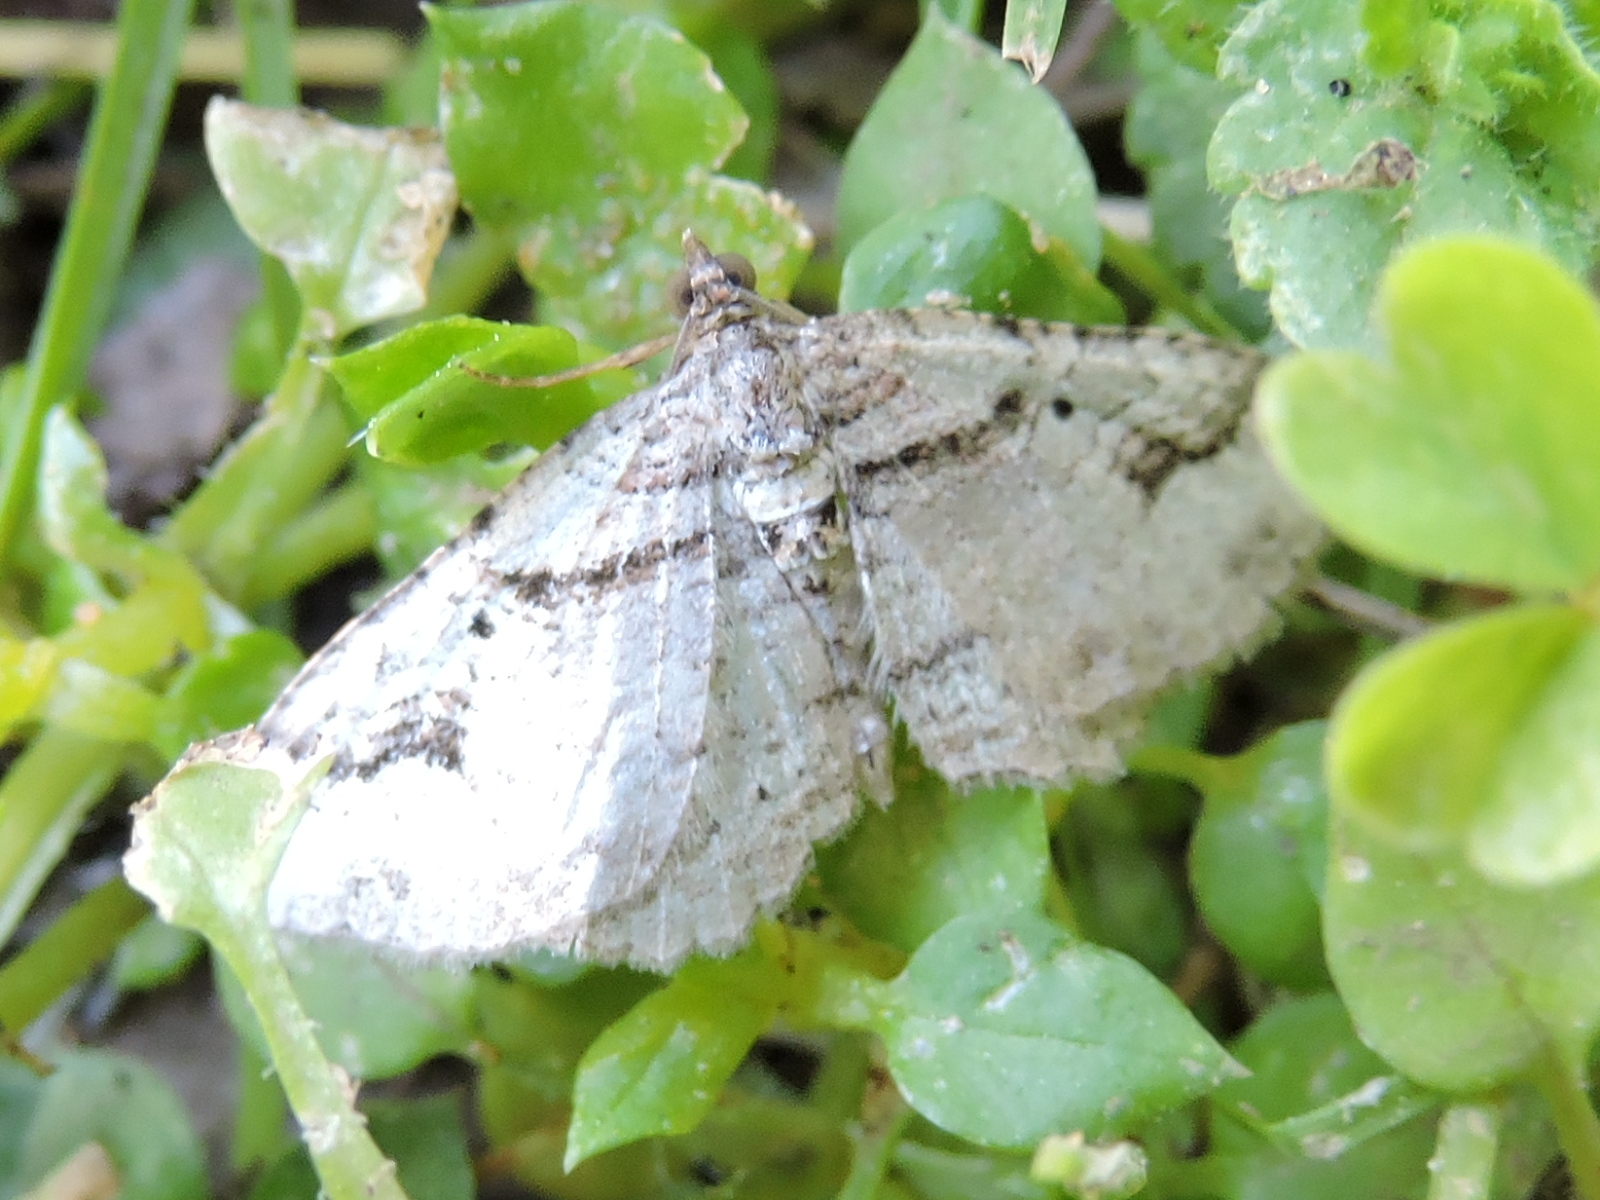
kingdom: Animalia
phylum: Arthropoda
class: Insecta
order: Lepidoptera
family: Geometridae
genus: Costaconvexa
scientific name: Costaconvexa centrostrigaria
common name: Bent-line carpet
